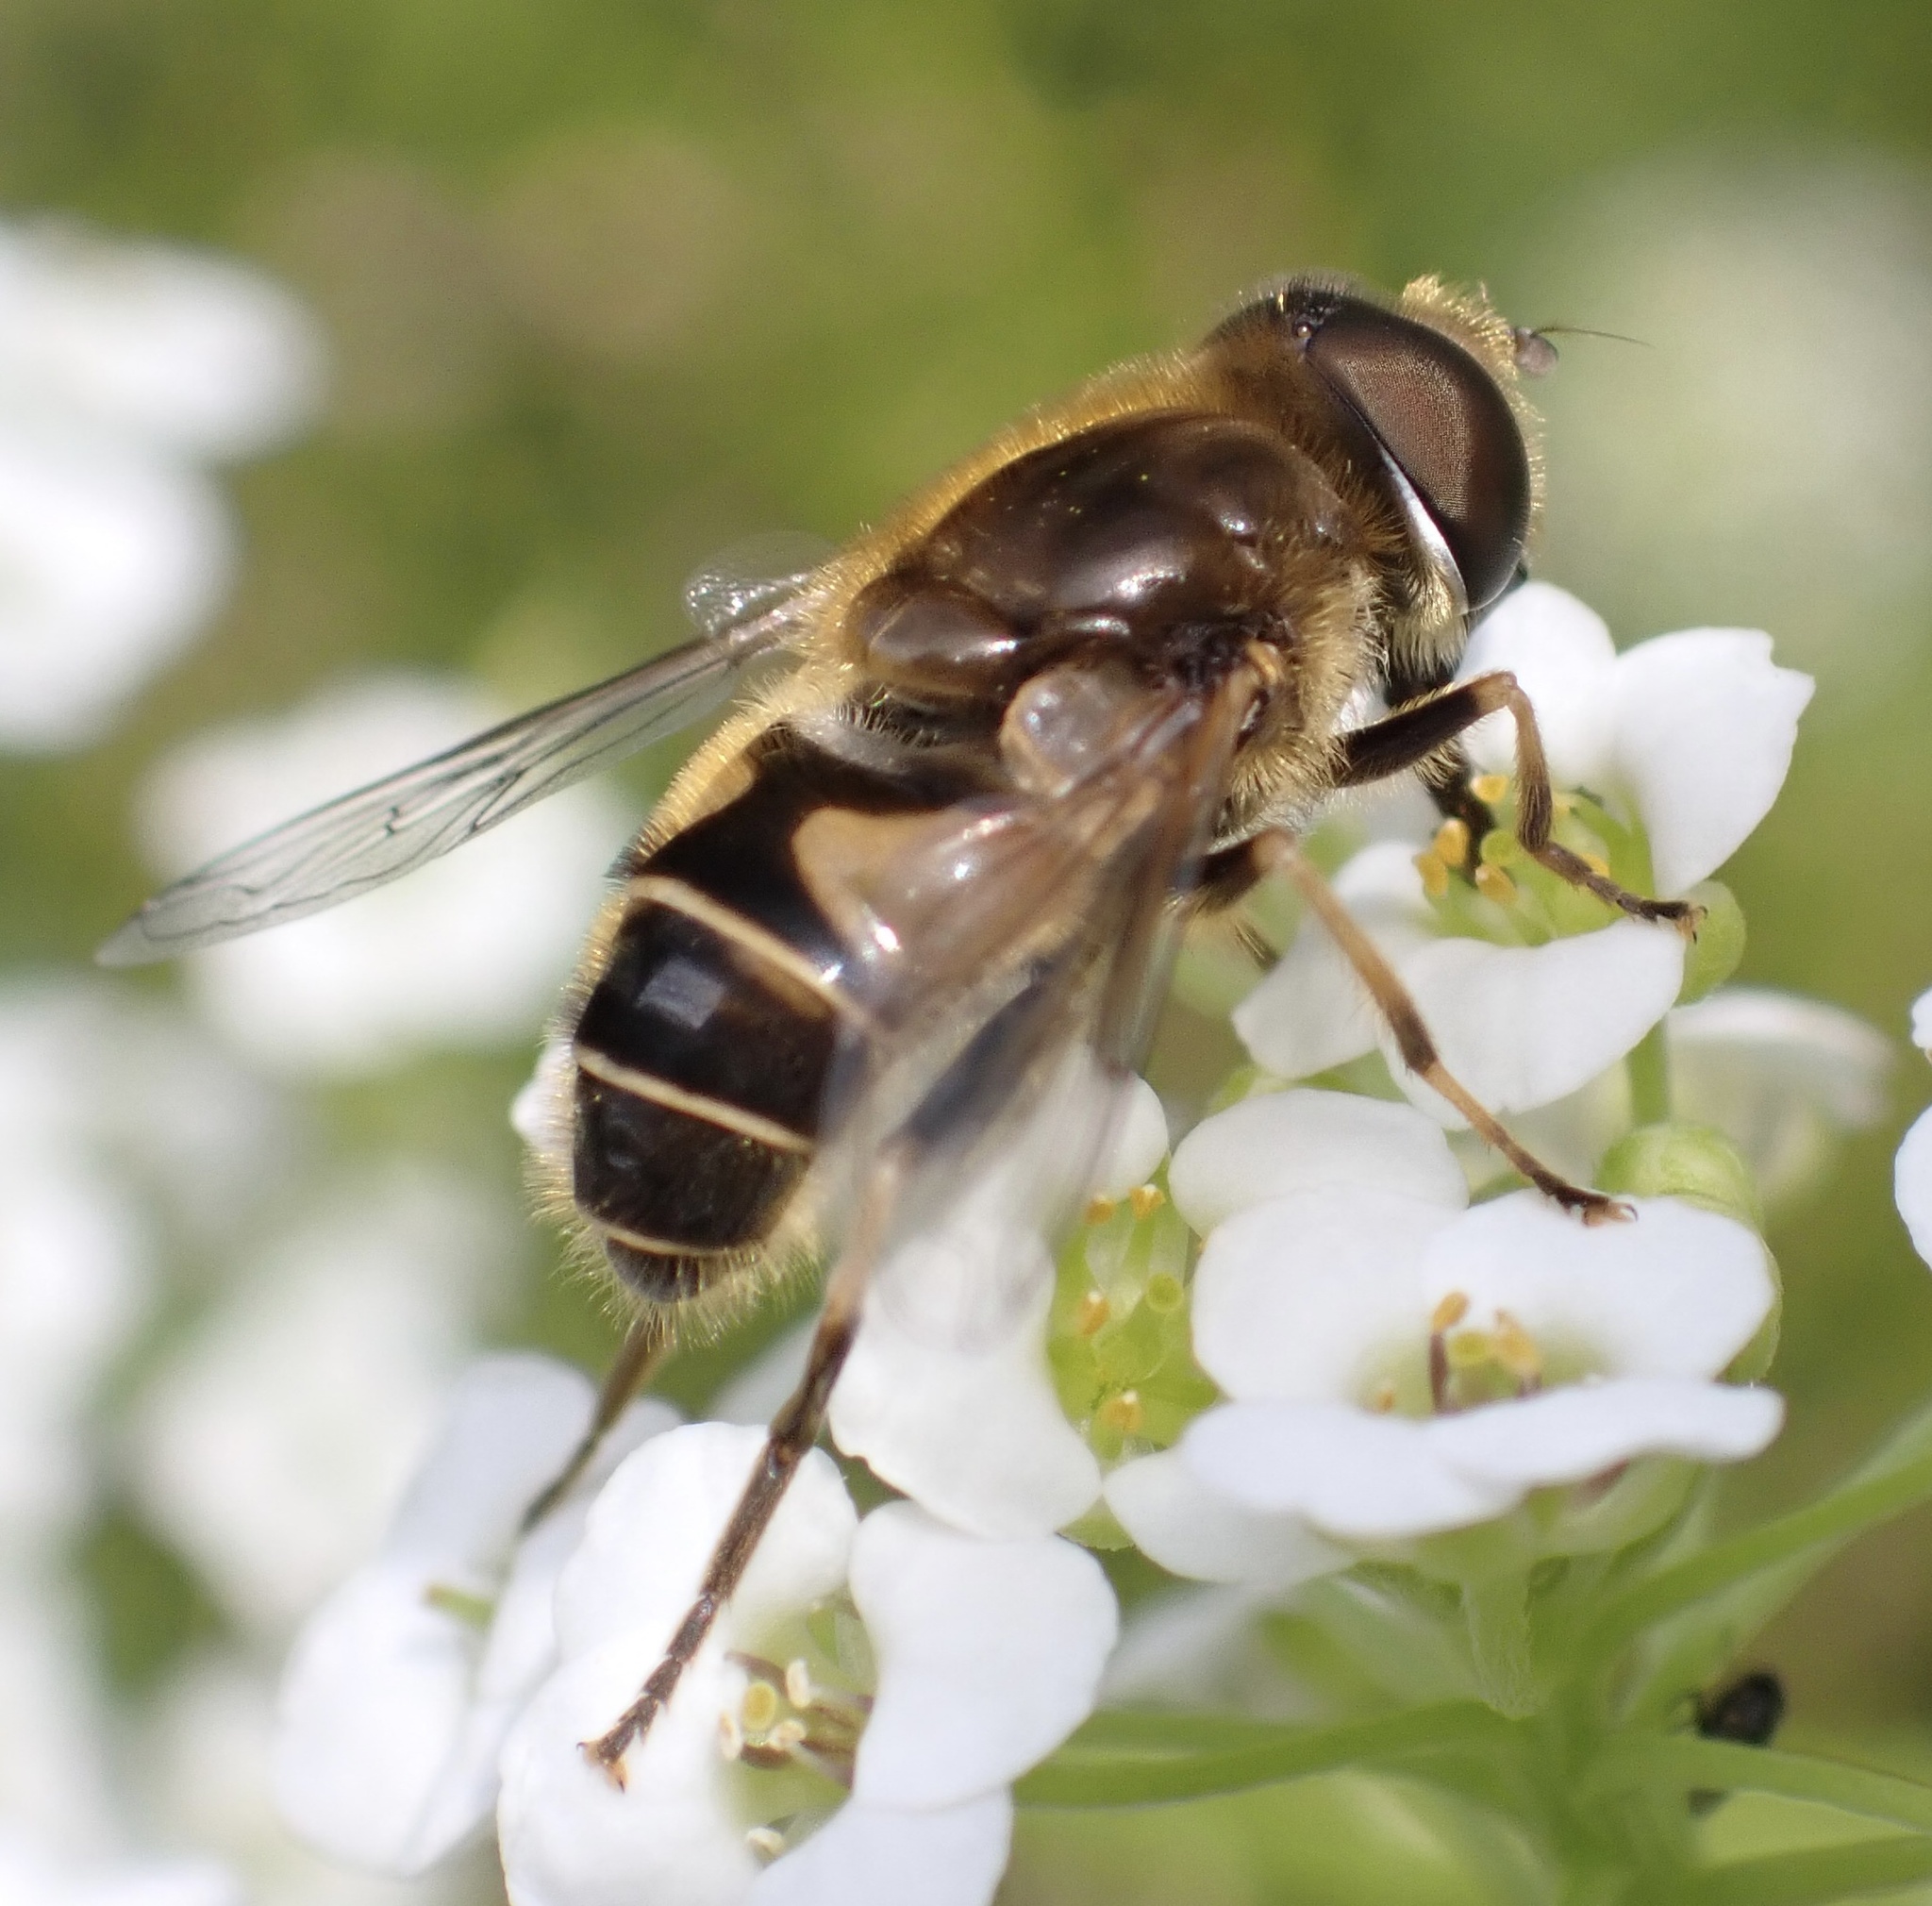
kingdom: Animalia
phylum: Arthropoda
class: Insecta
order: Diptera
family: Syrphidae
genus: Eristalis
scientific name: Eristalis nemorum
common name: Orange-spined drone fly
